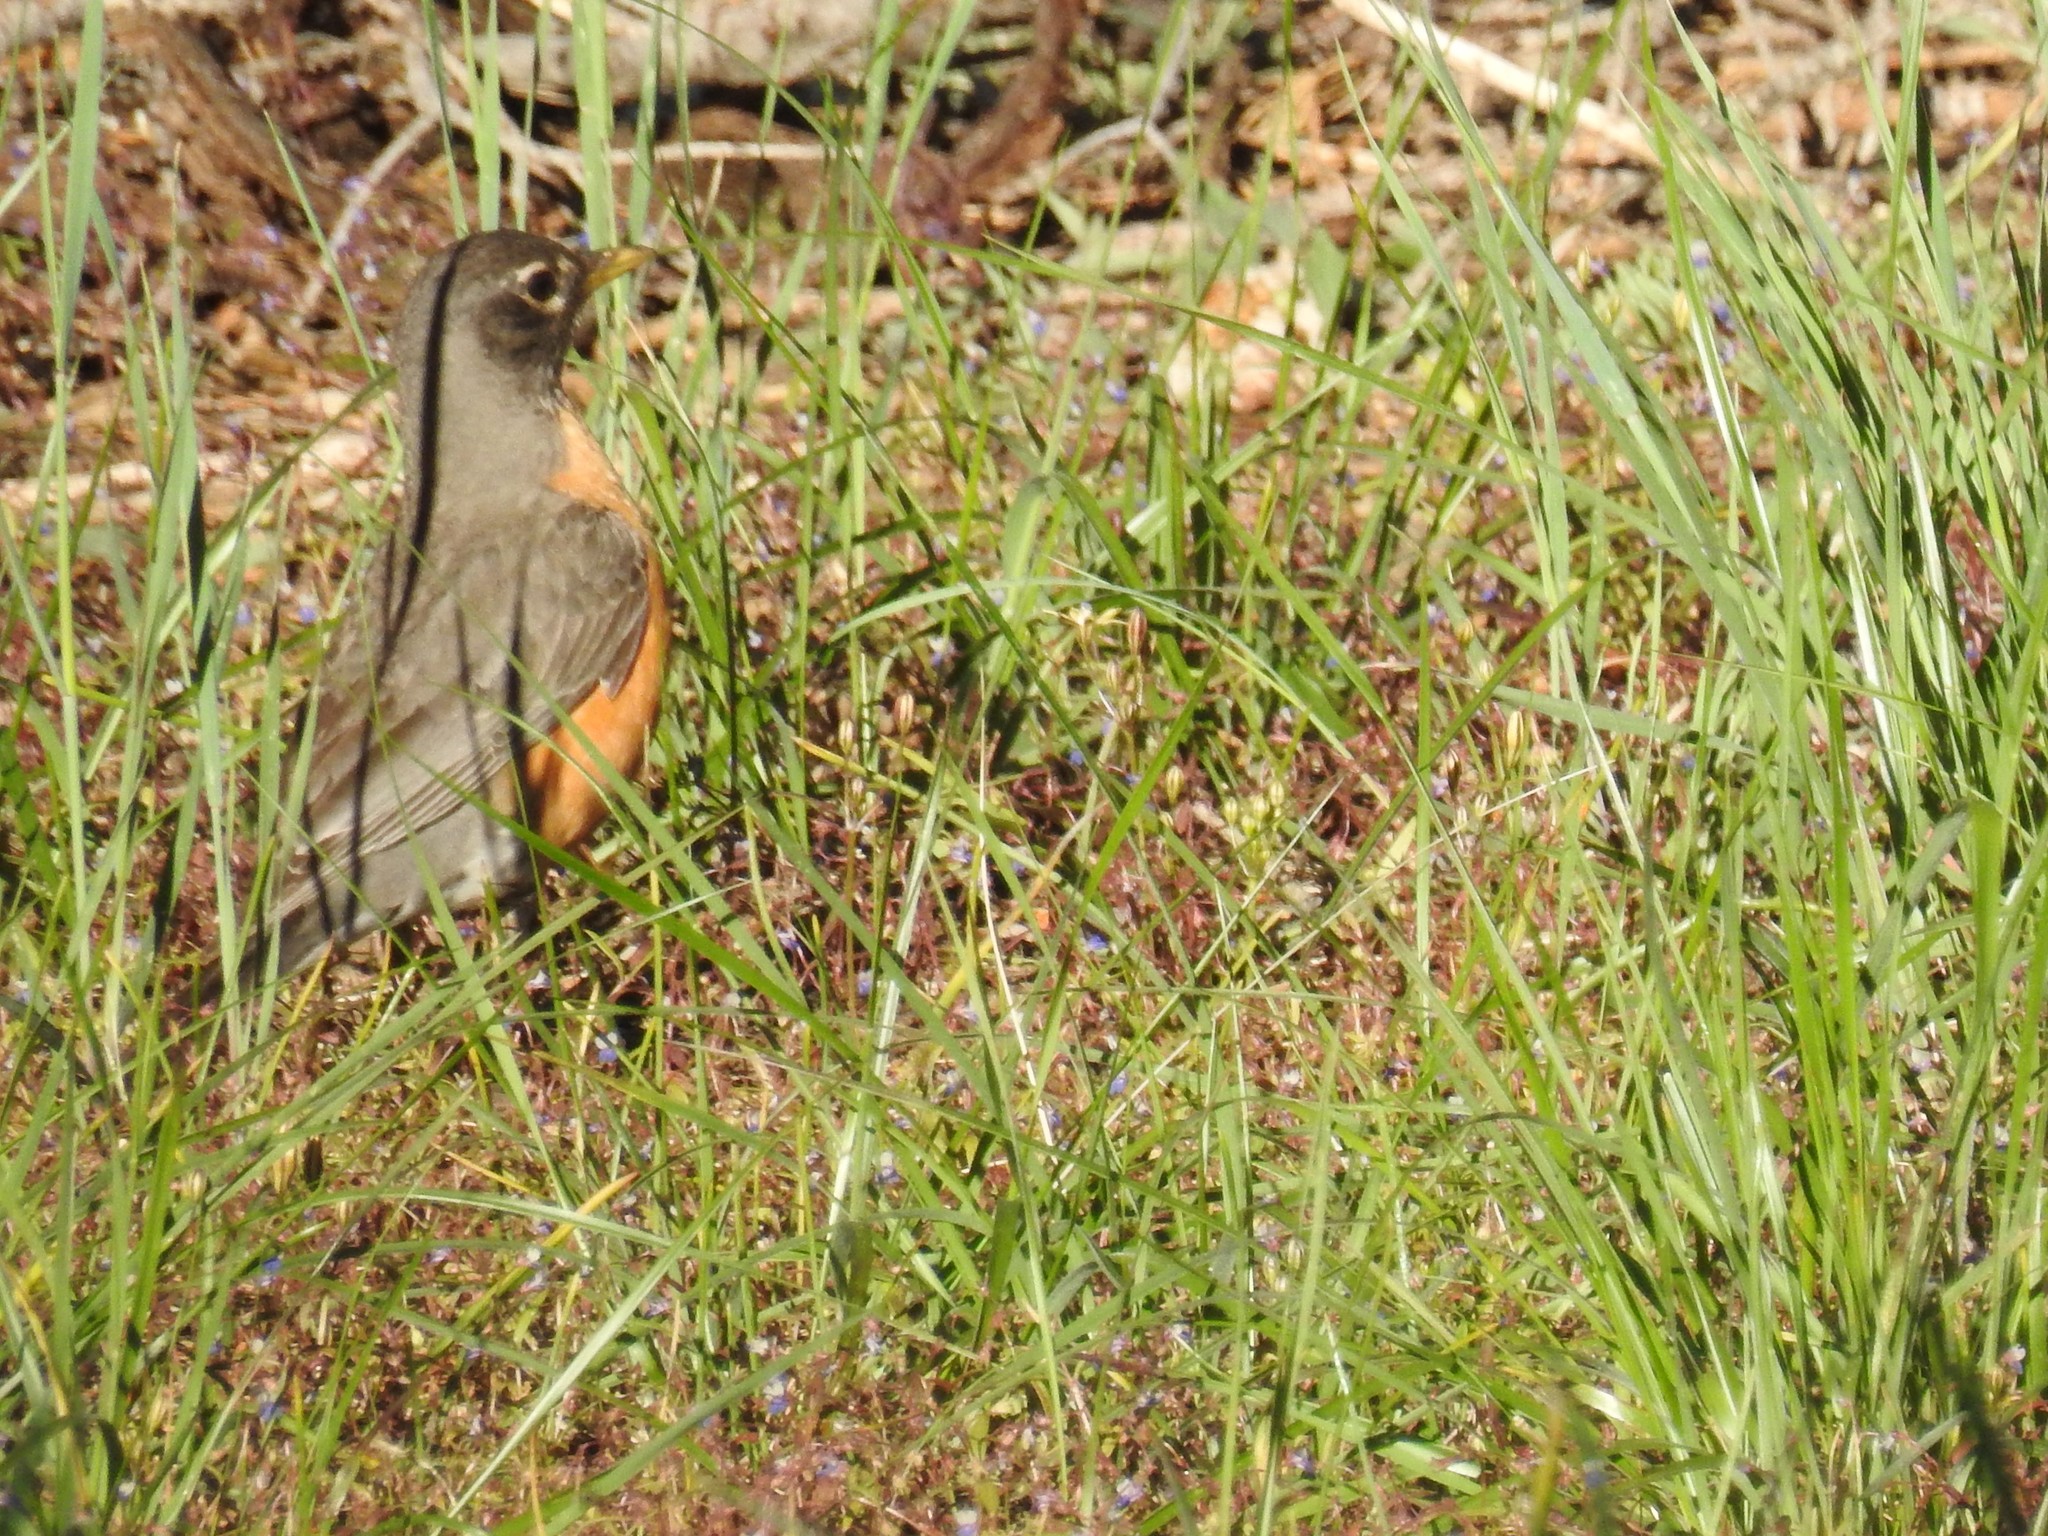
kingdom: Animalia
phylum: Chordata
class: Aves
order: Passeriformes
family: Turdidae
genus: Turdus
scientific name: Turdus migratorius
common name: American robin
